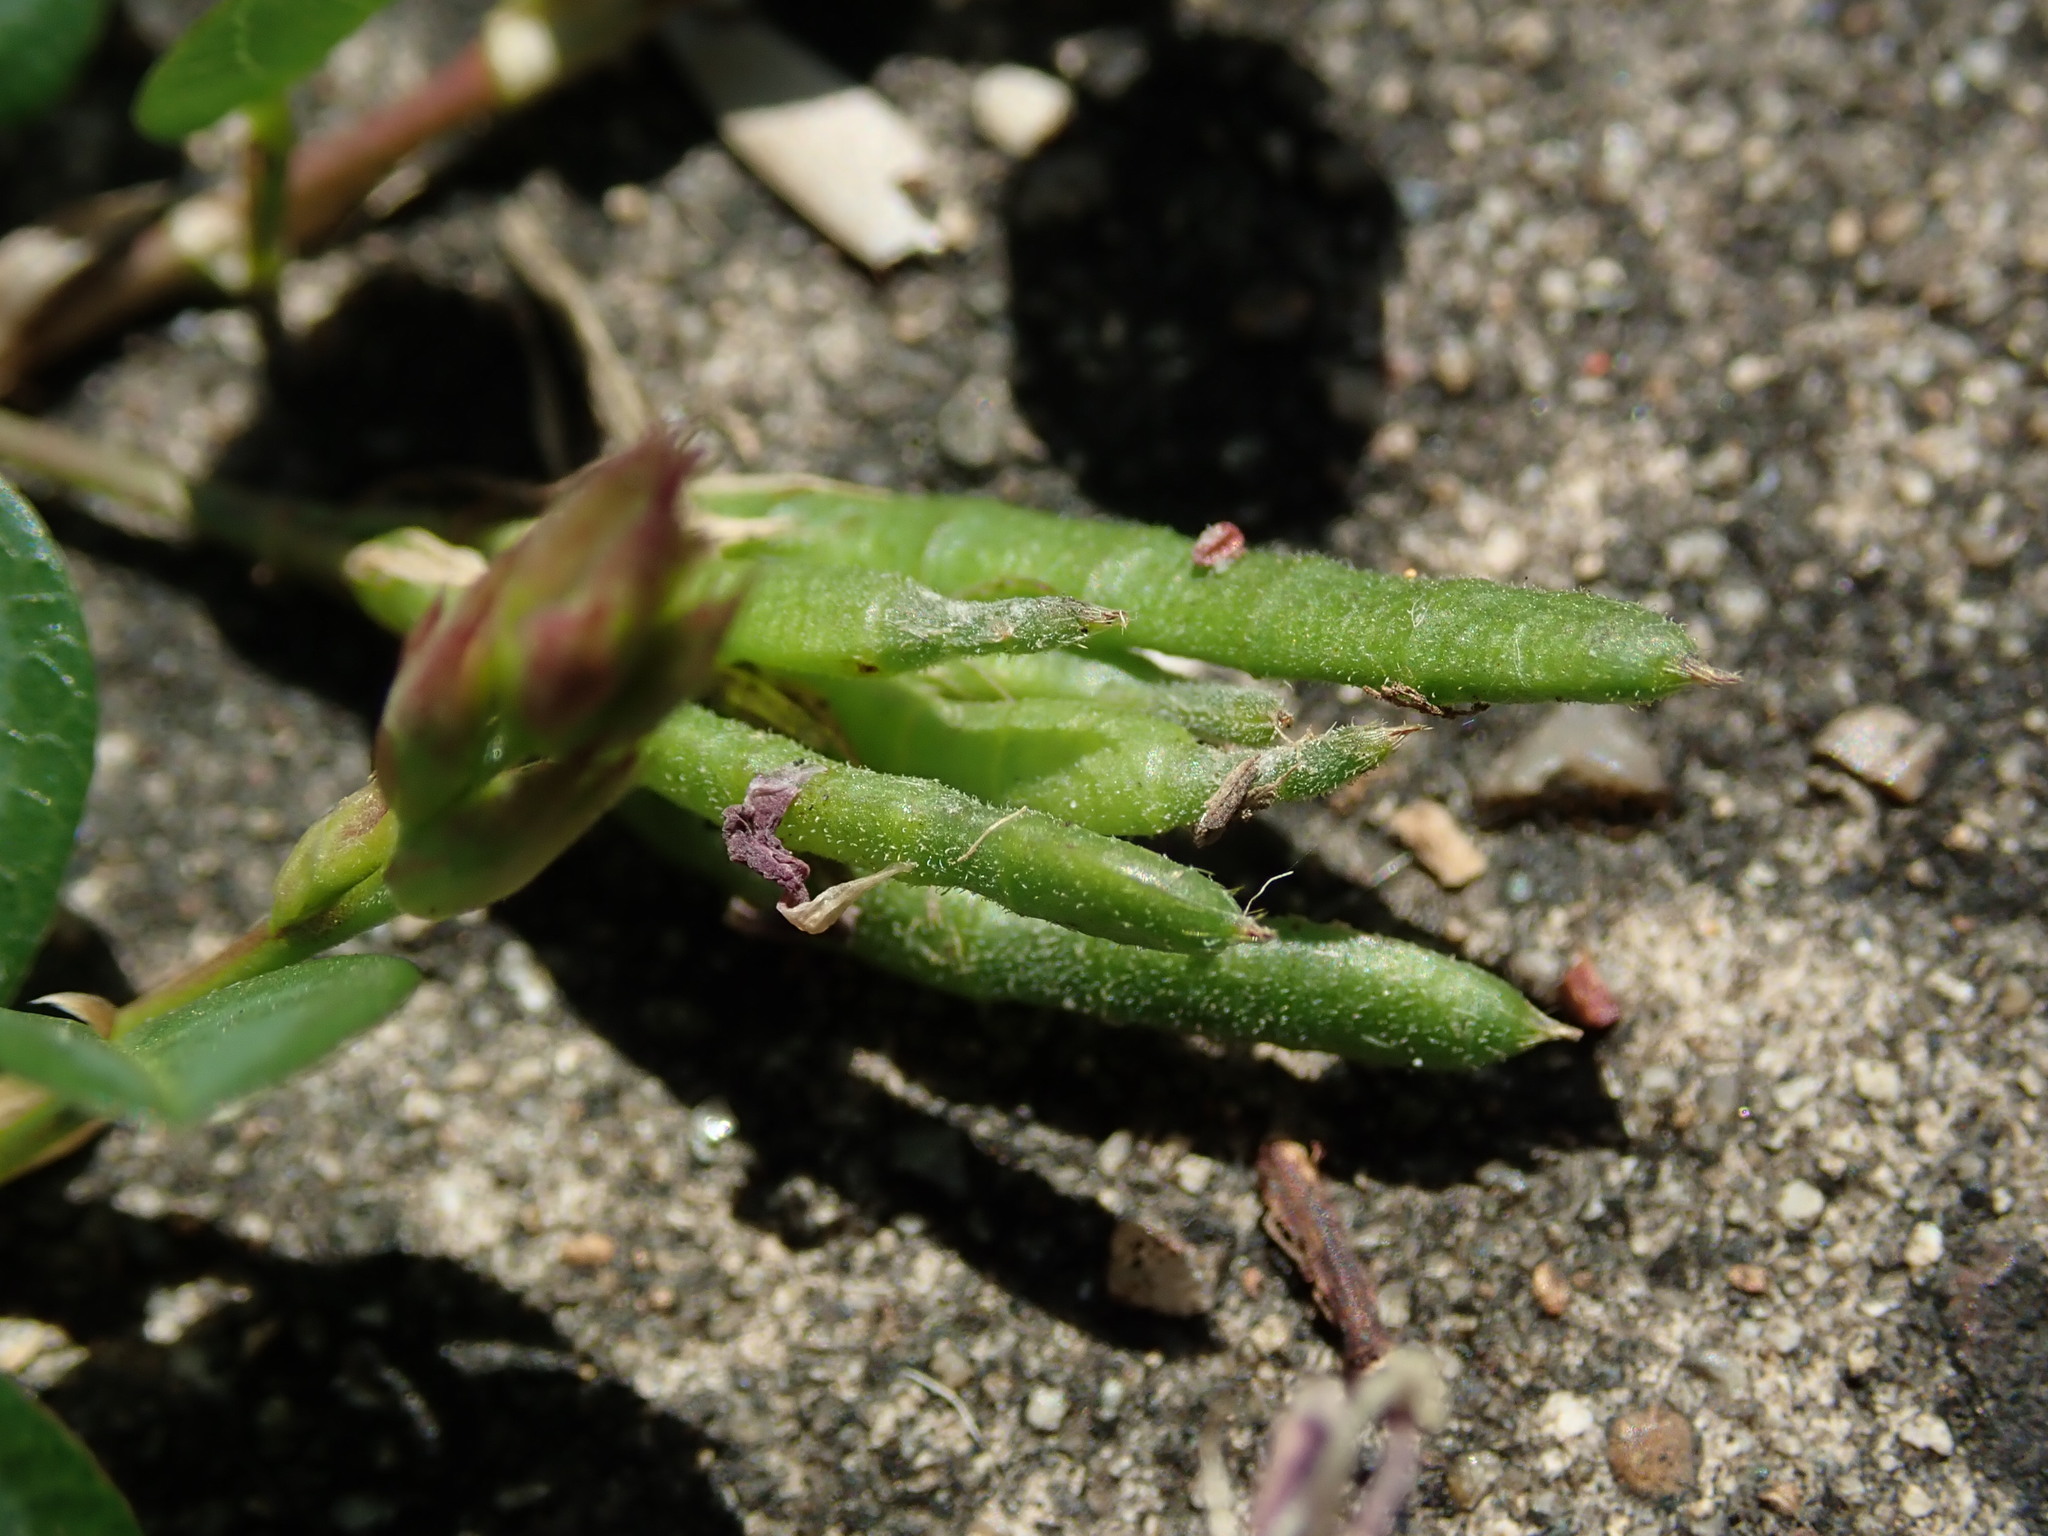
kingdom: Plantae
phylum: Tracheophyta
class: Magnoliopsida
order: Fabales
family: Fabaceae
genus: Alysicarpus
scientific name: Alysicarpus vaginalis
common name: White moneywort
